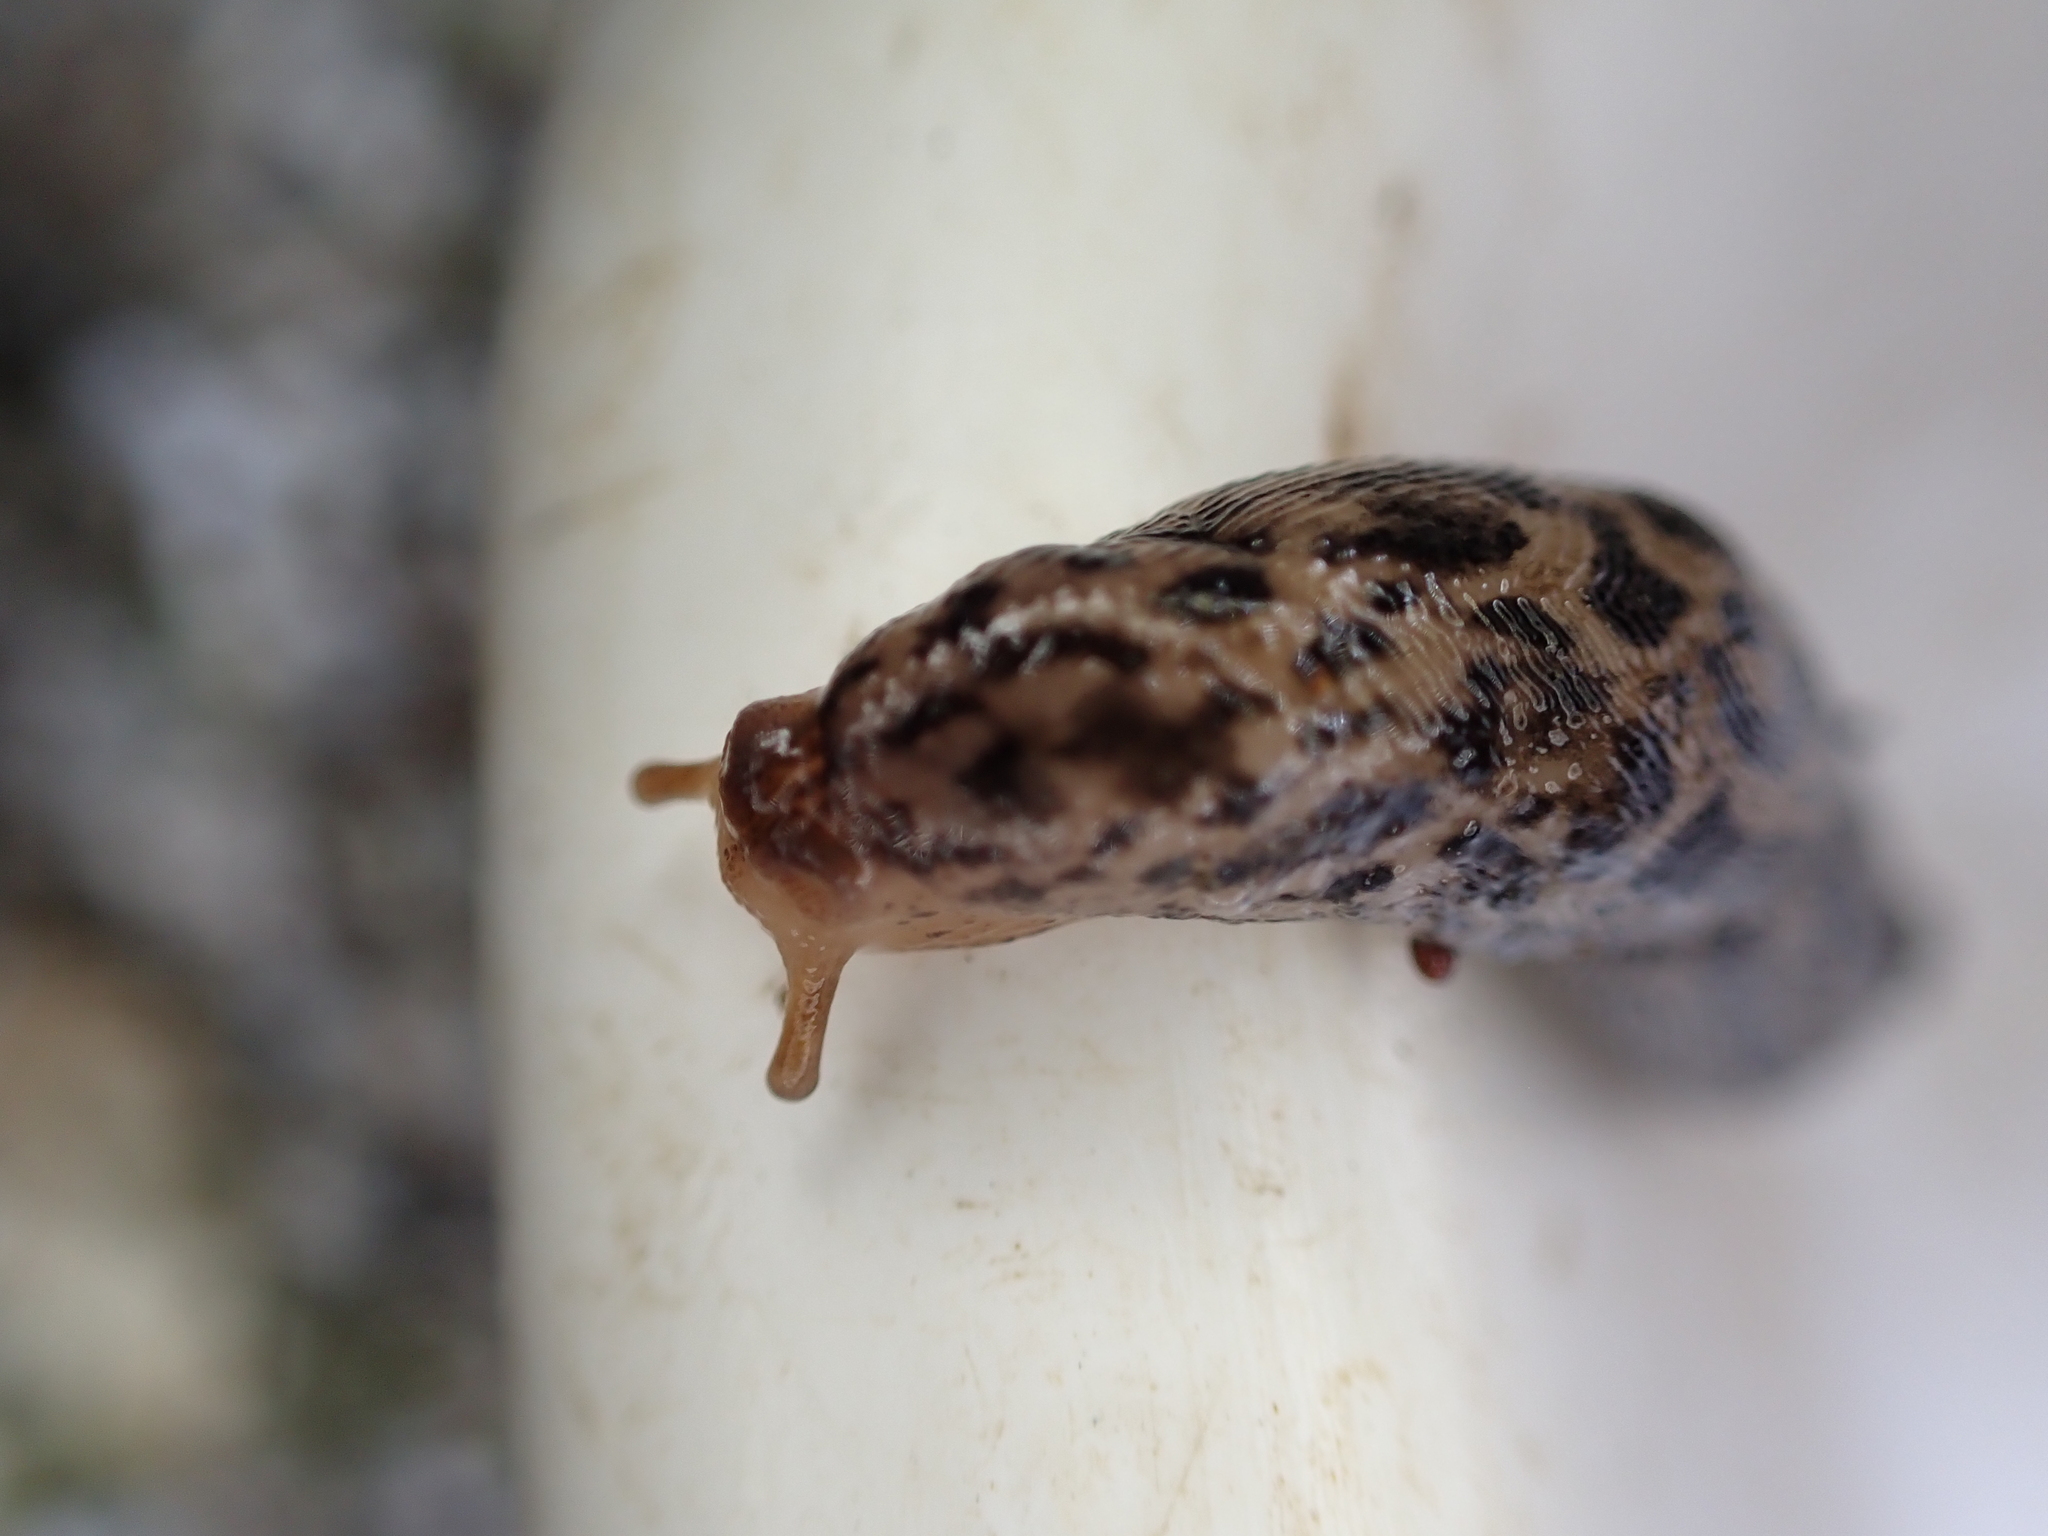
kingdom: Animalia
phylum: Mollusca
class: Gastropoda
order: Stylommatophora
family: Limacidae
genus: Limax
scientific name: Limax maximus
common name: Great grey slug
